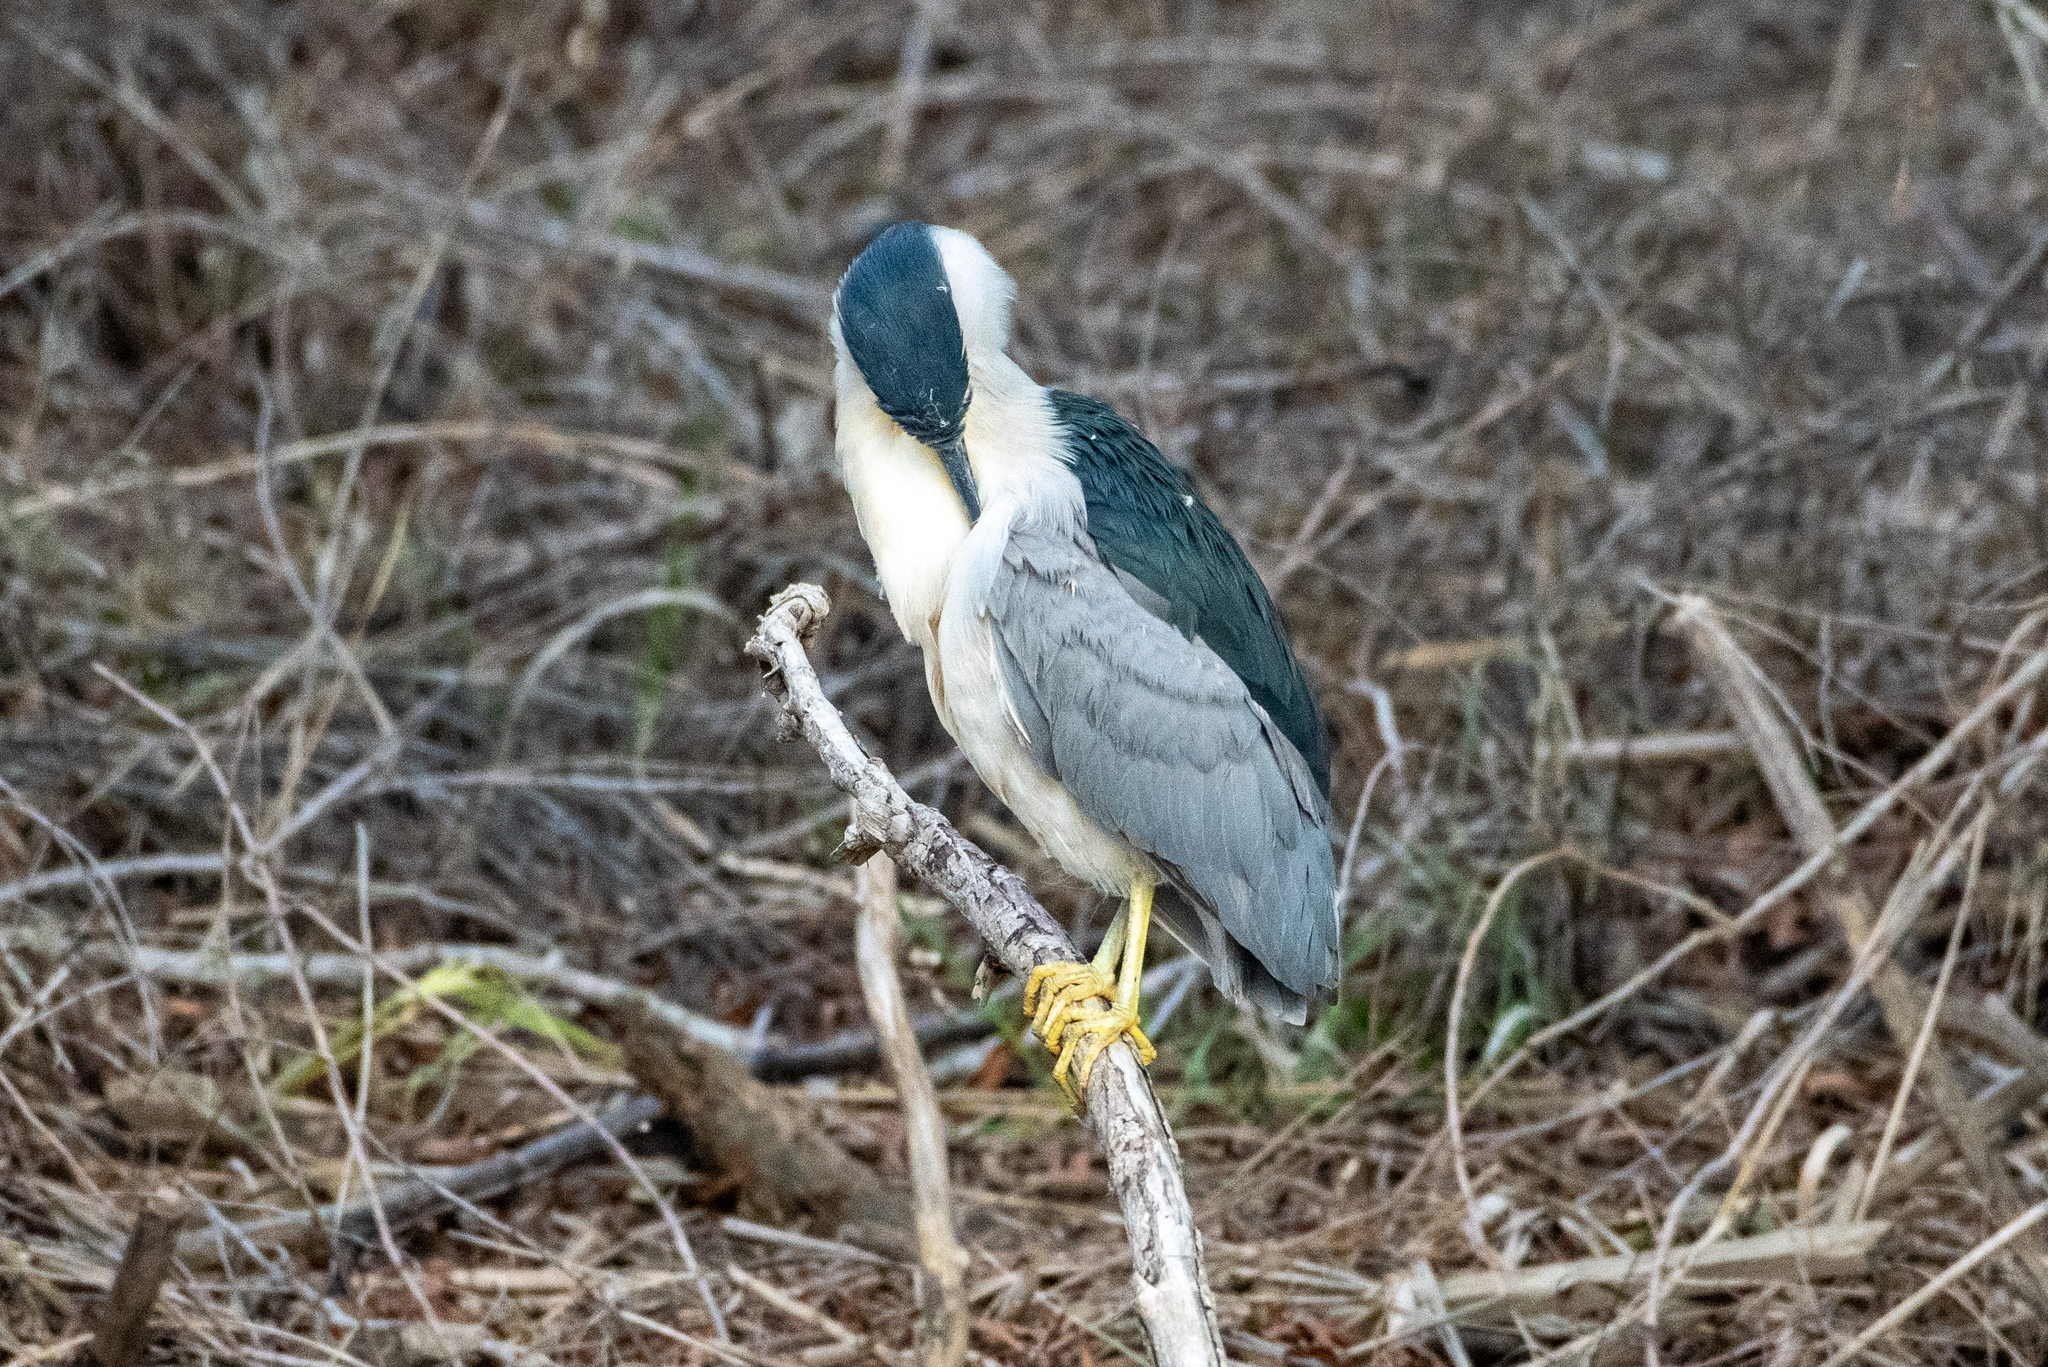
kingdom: Animalia
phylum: Chordata
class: Aves
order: Pelecaniformes
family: Ardeidae
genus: Nycticorax
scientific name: Nycticorax nycticorax
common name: Black-crowned night heron
